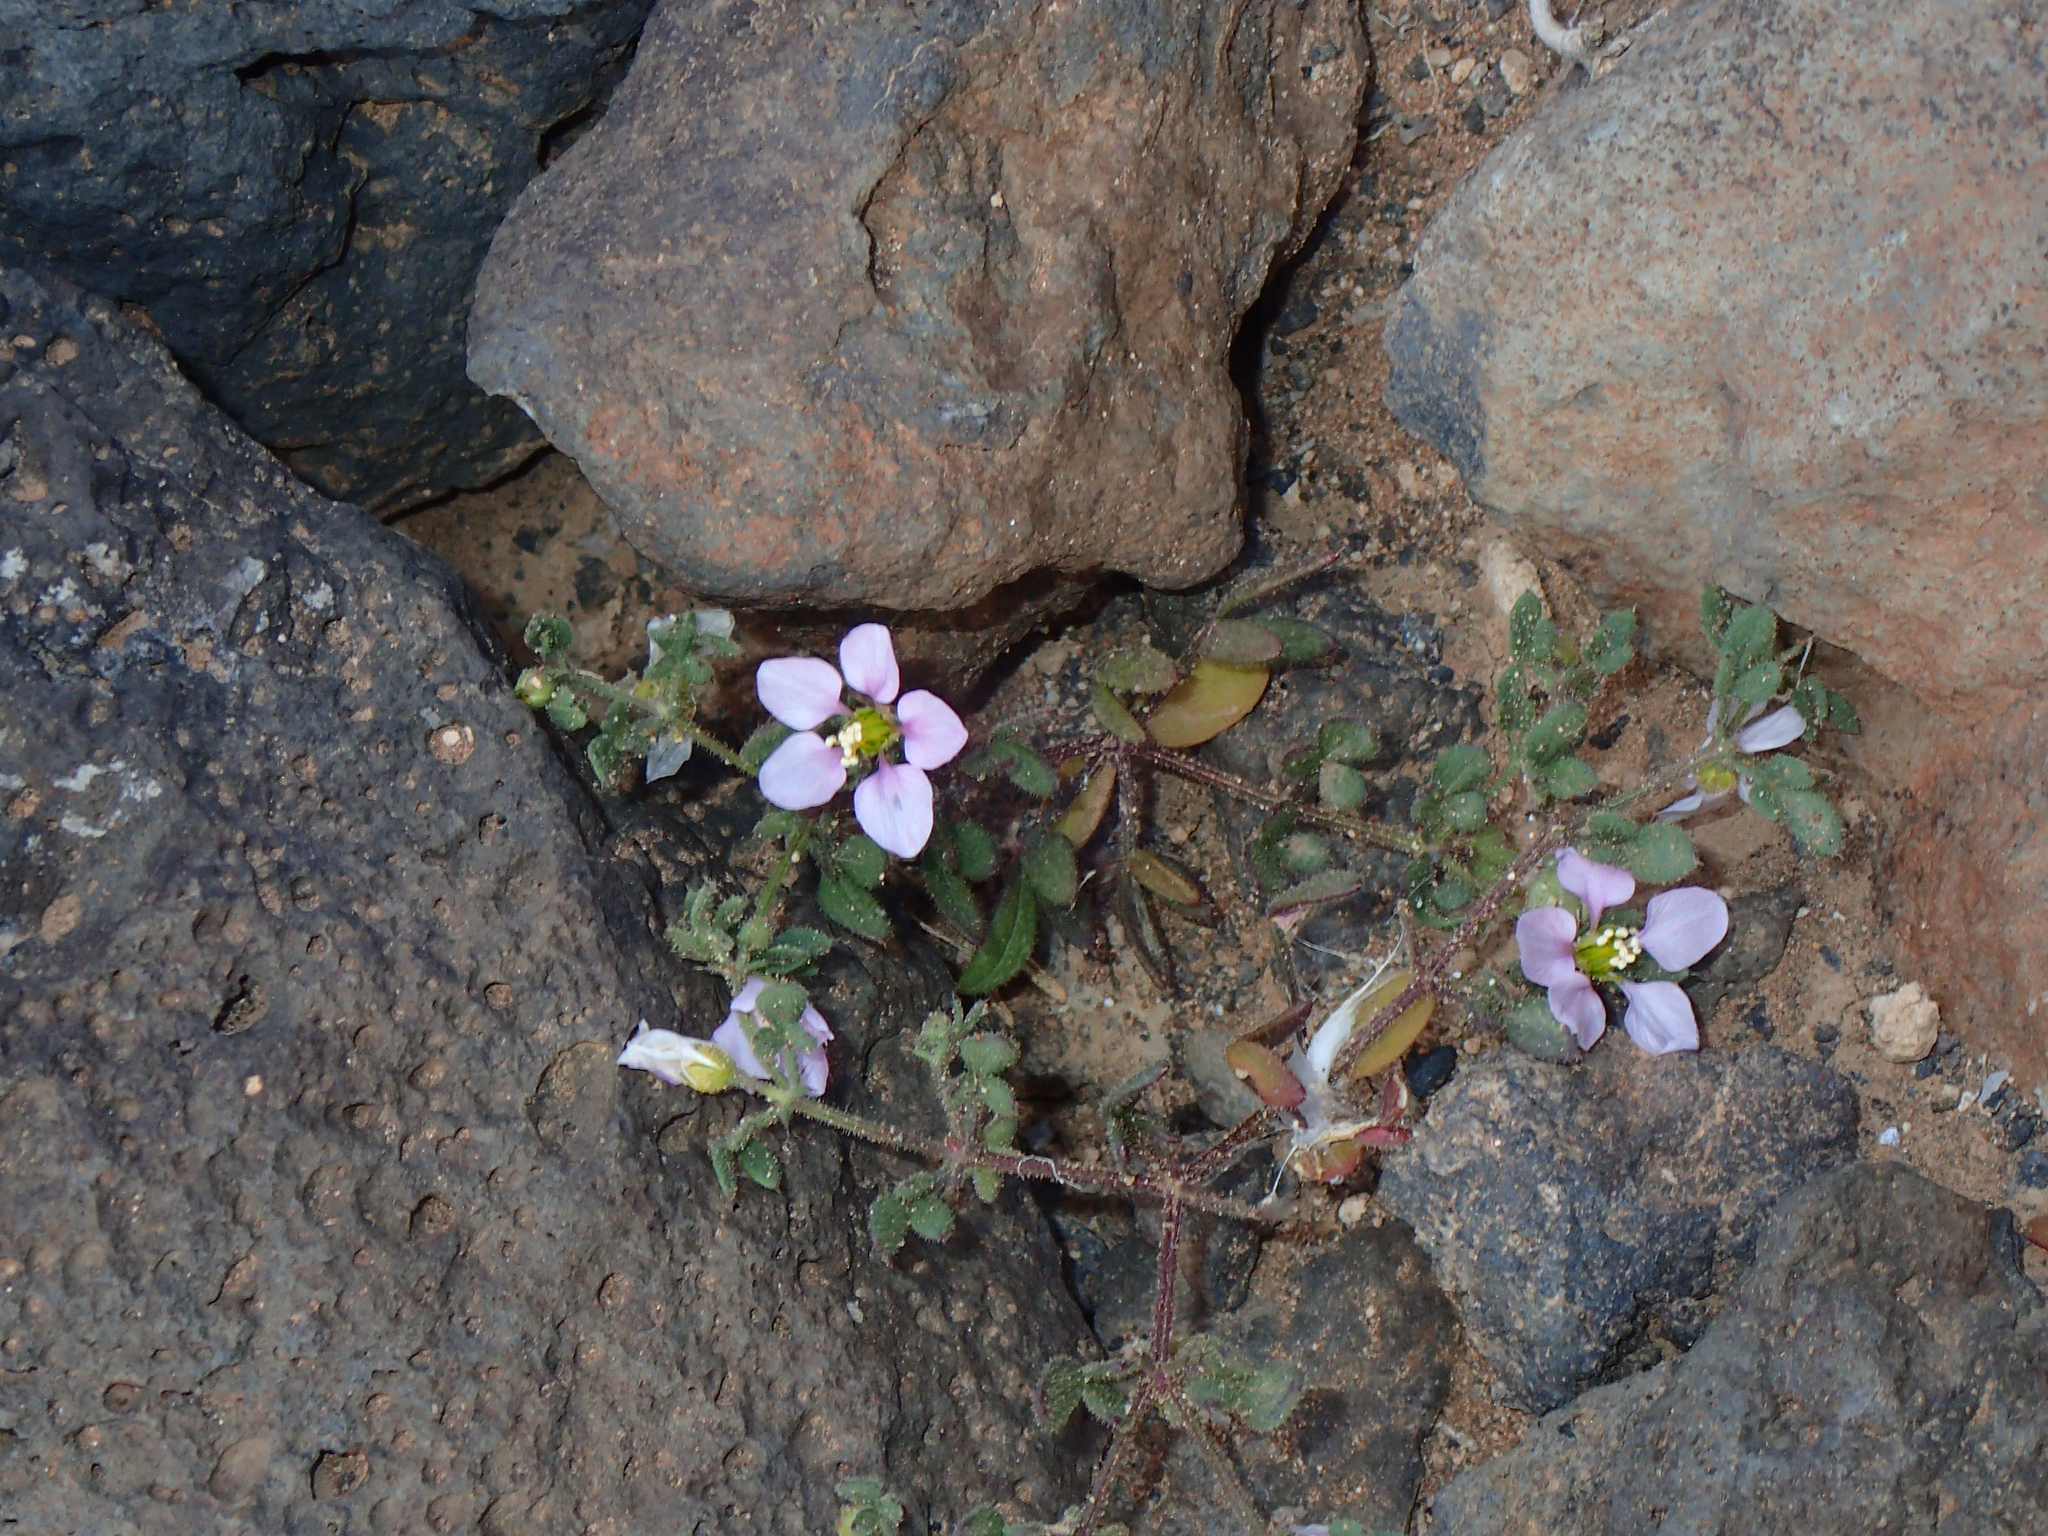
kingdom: Plantae
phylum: Tracheophyta
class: Magnoliopsida
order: Zygophyllales
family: Zygophyllaceae
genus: Fagonia
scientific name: Fagonia cretica
